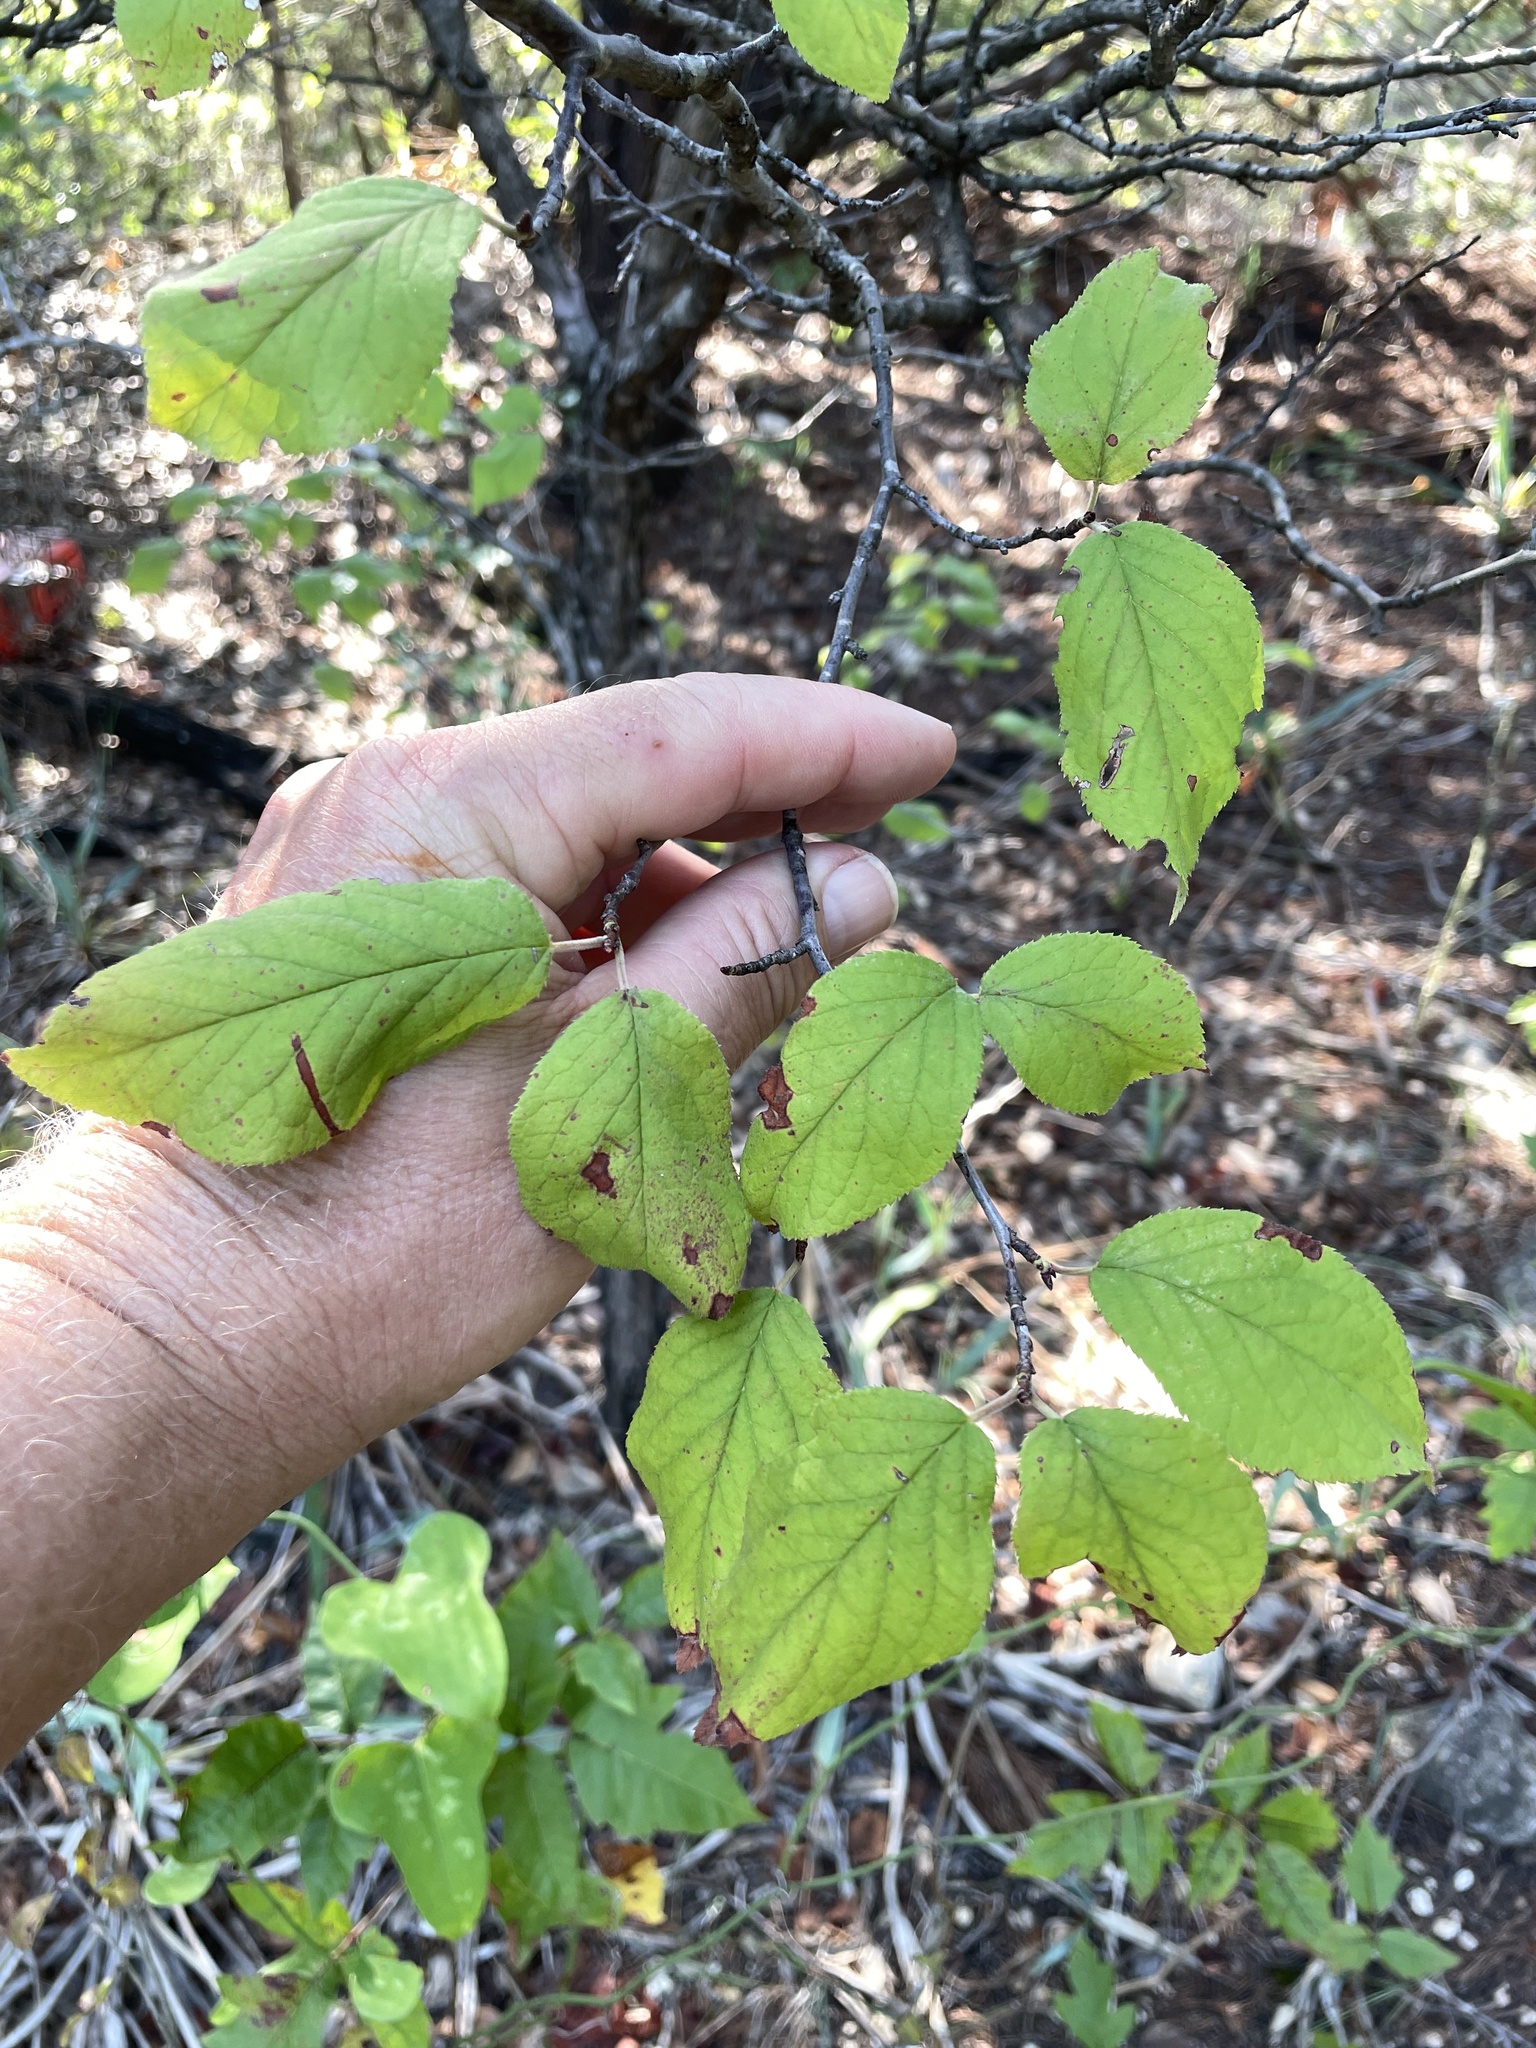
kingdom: Plantae
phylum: Tracheophyta
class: Magnoliopsida
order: Rosales
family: Rosaceae
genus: Prunus
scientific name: Prunus mexicana
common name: Mexican plum
